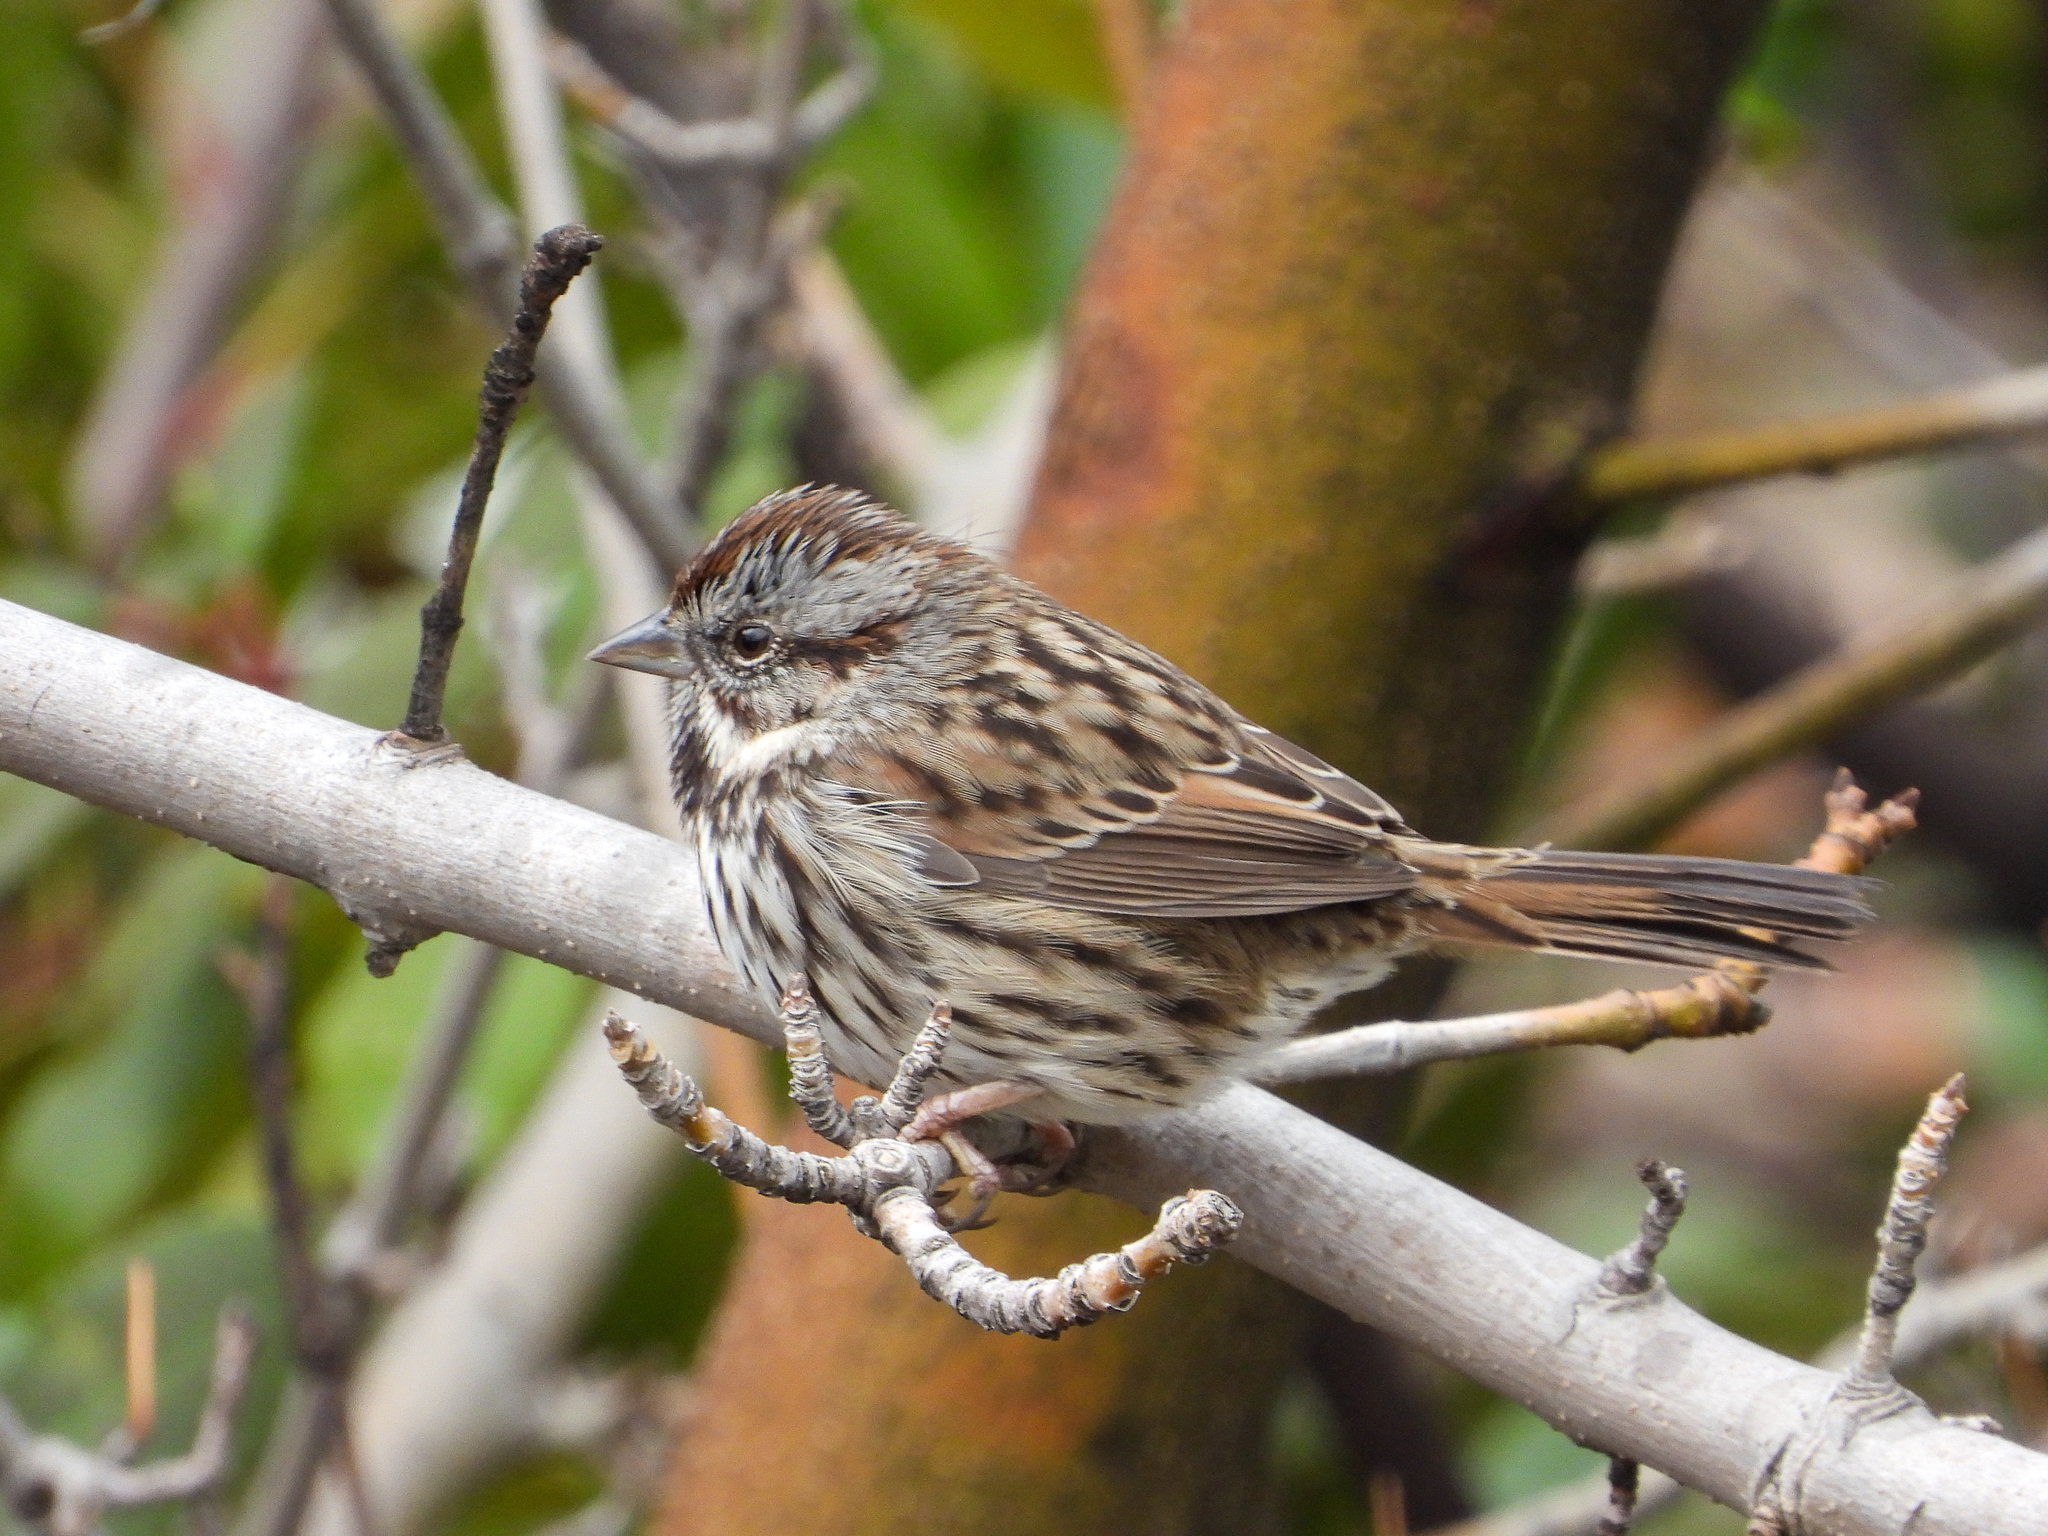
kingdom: Animalia
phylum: Chordata
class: Aves
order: Passeriformes
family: Passerellidae
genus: Melospiza
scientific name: Melospiza melodia
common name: Song sparrow
